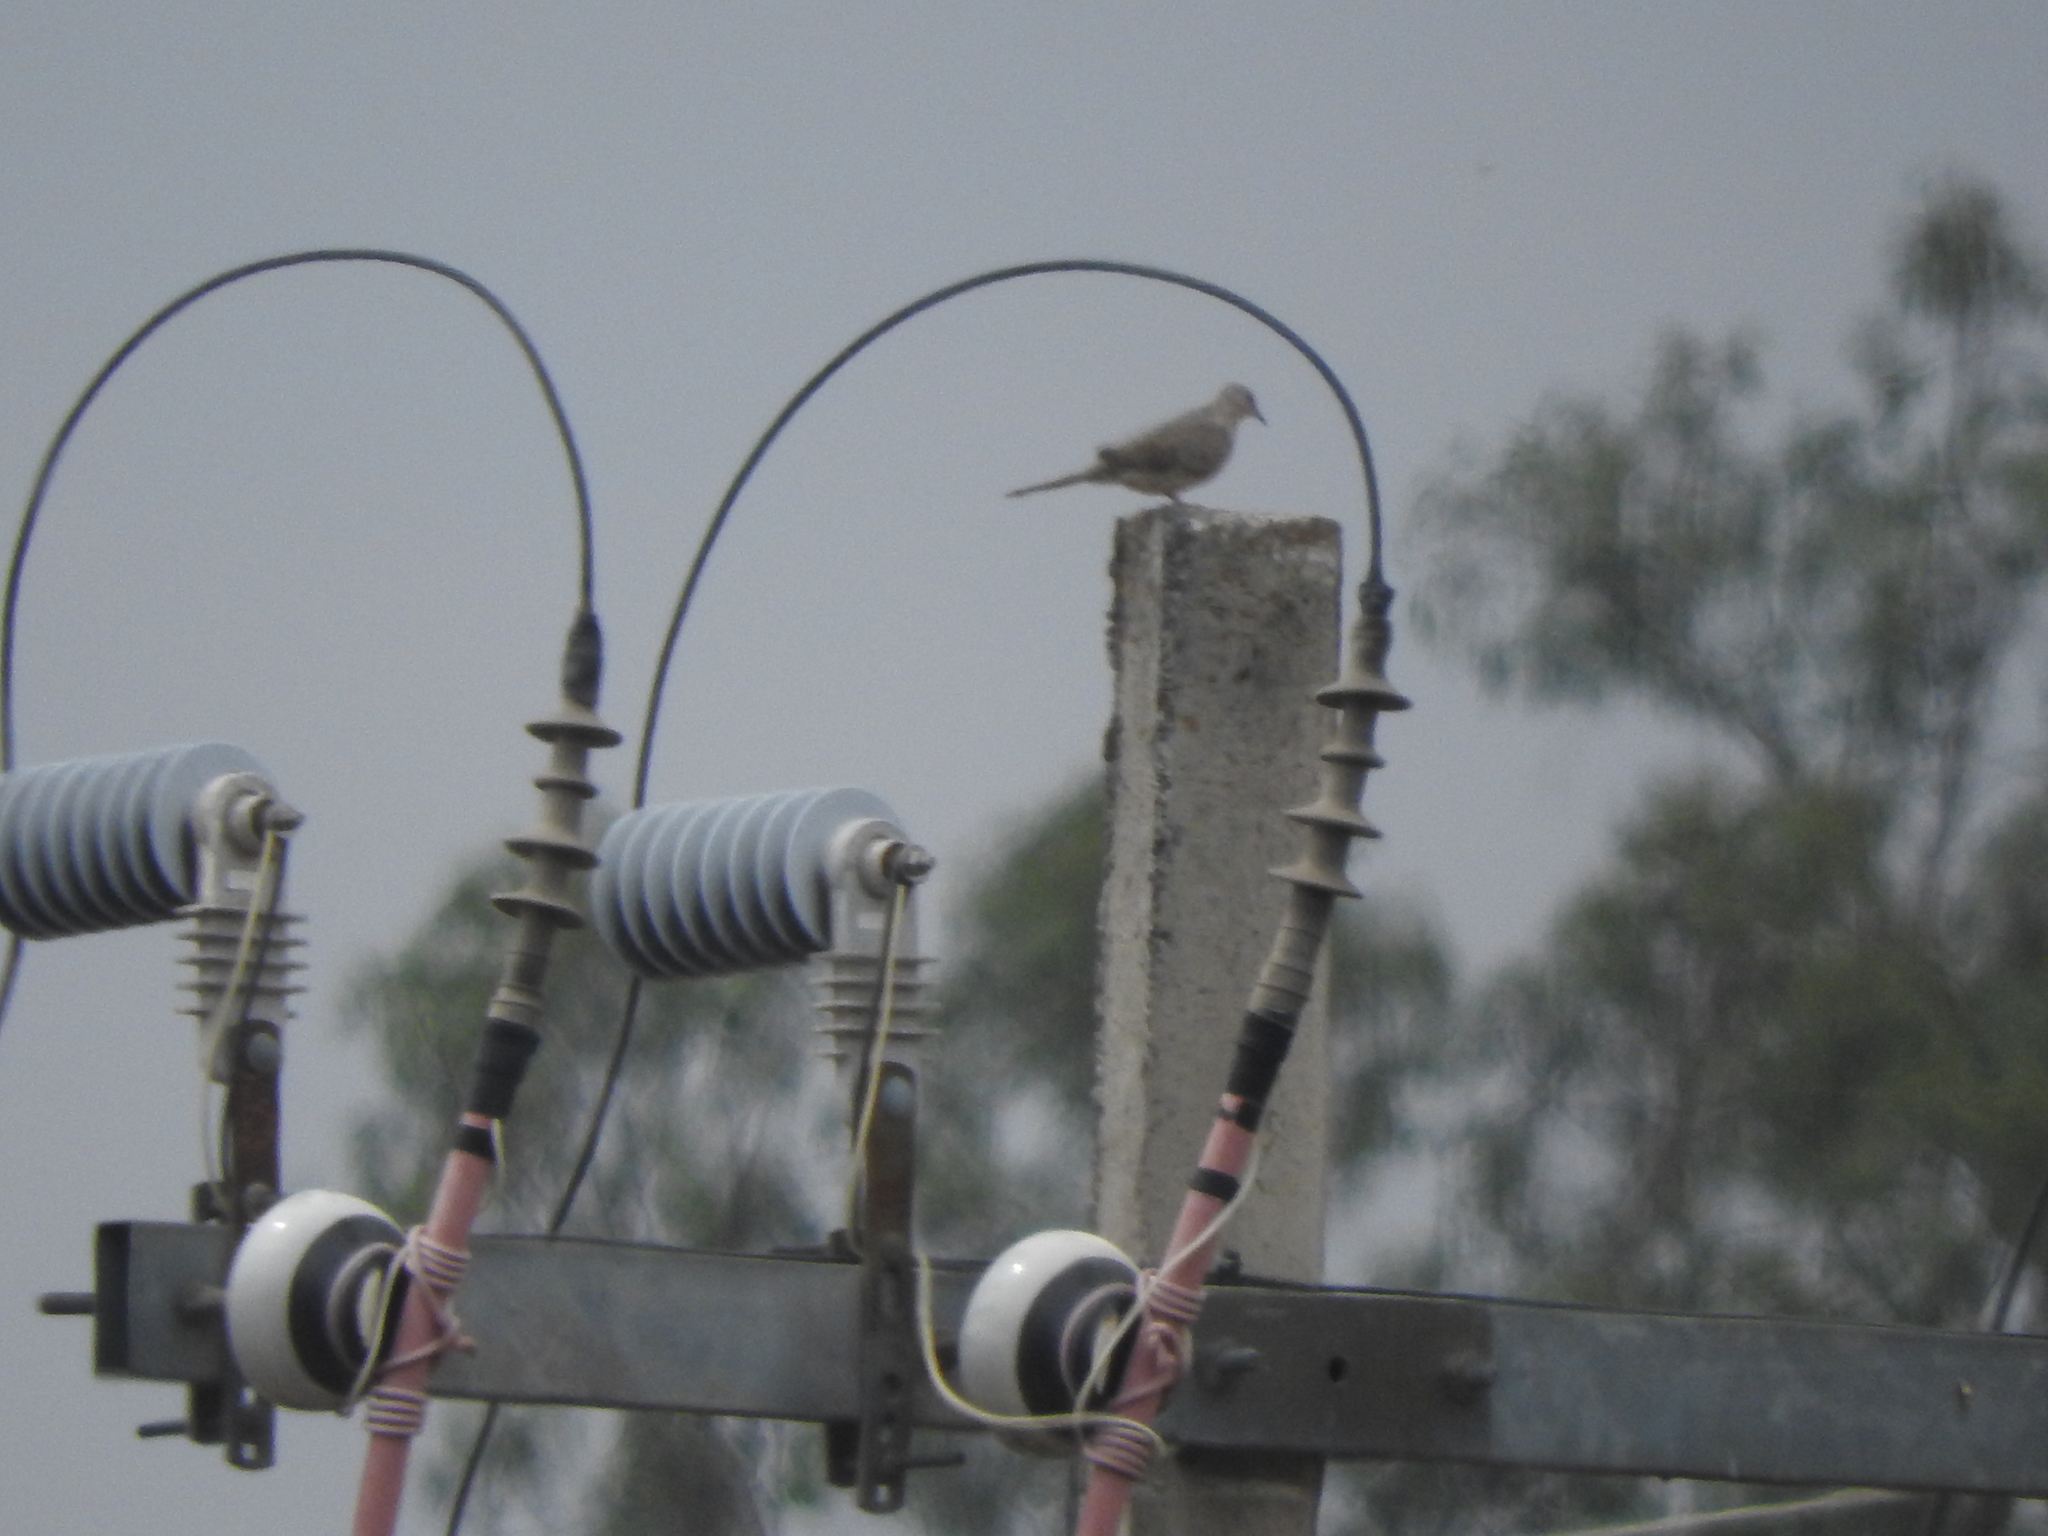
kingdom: Animalia
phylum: Chordata
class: Aves
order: Columbiformes
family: Columbidae
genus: Columbina
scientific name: Columbina inca
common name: Inca dove
